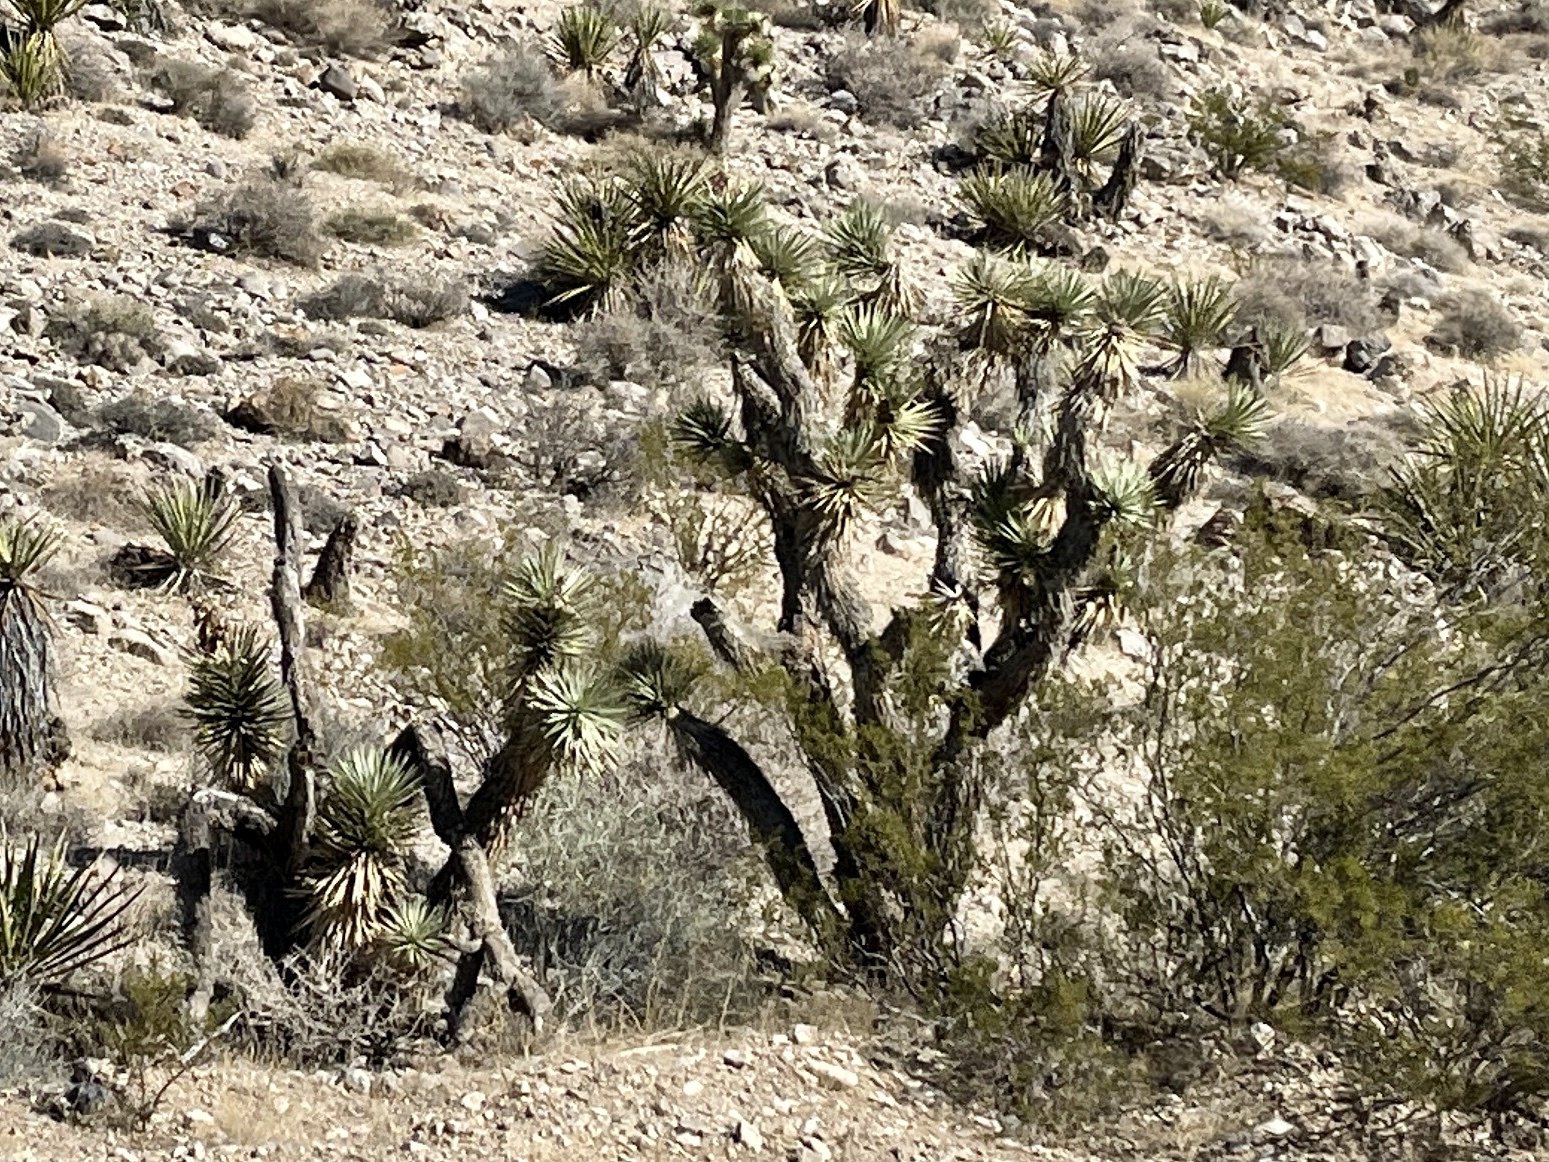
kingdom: Plantae
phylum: Tracheophyta
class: Liliopsida
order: Asparagales
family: Asparagaceae
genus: Yucca
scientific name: Yucca brevifolia
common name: Joshua tree
